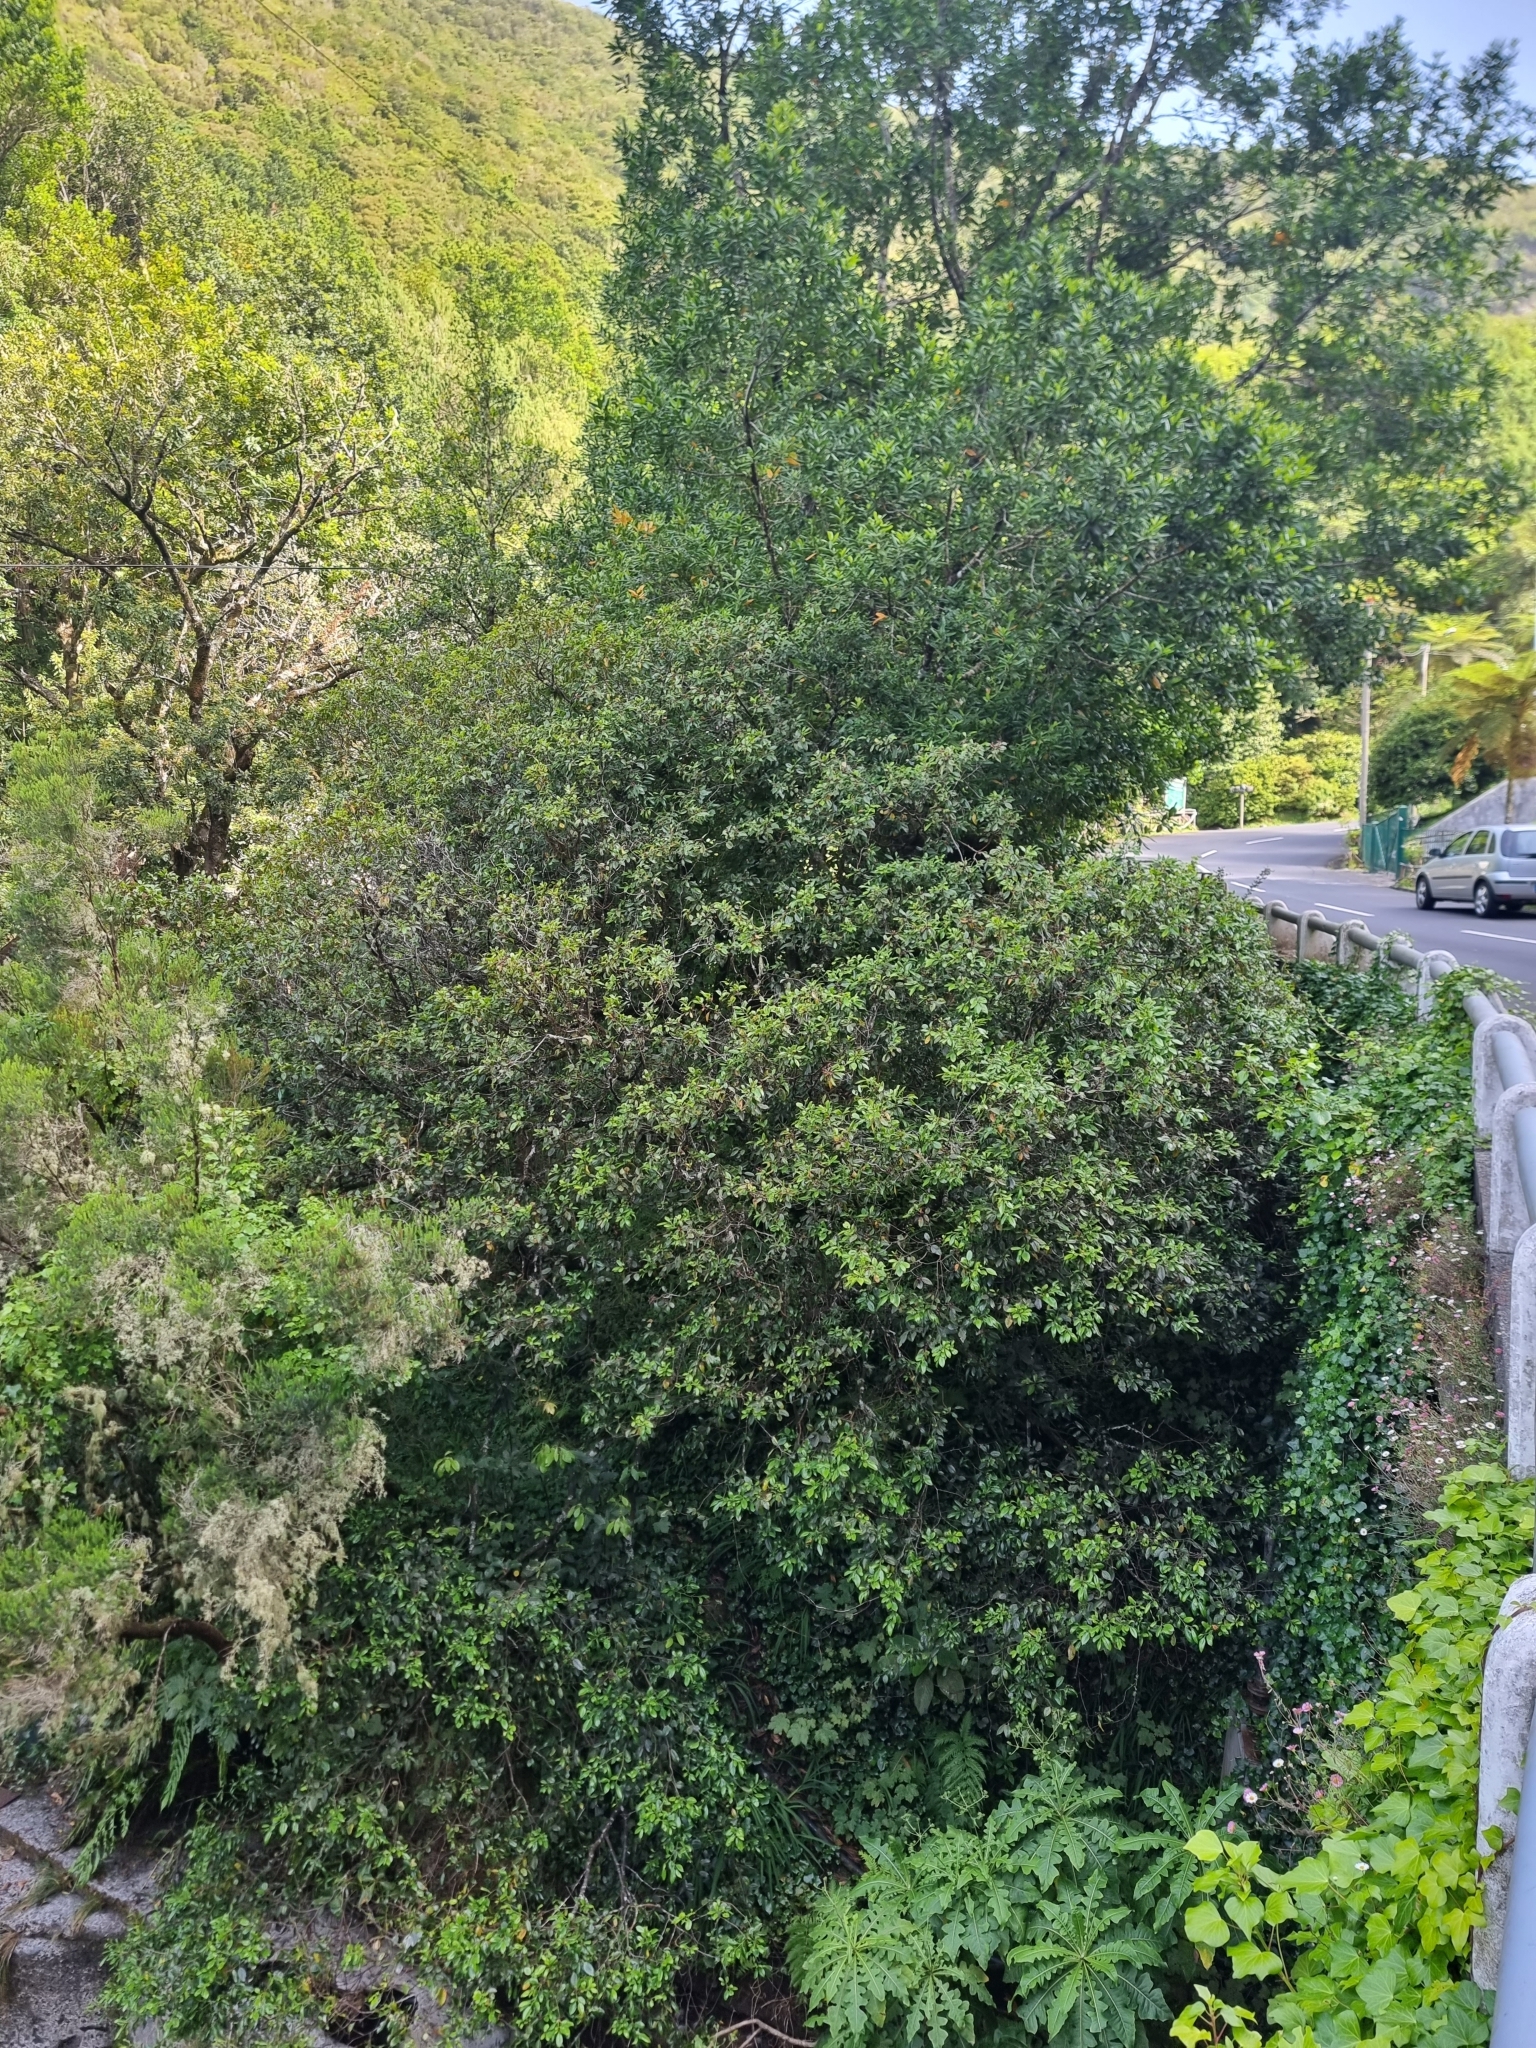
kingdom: Plantae
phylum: Tracheophyta
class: Magnoliopsida
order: Rosales
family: Rhamnaceae
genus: Rhamnus
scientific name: Rhamnus glandulosa
